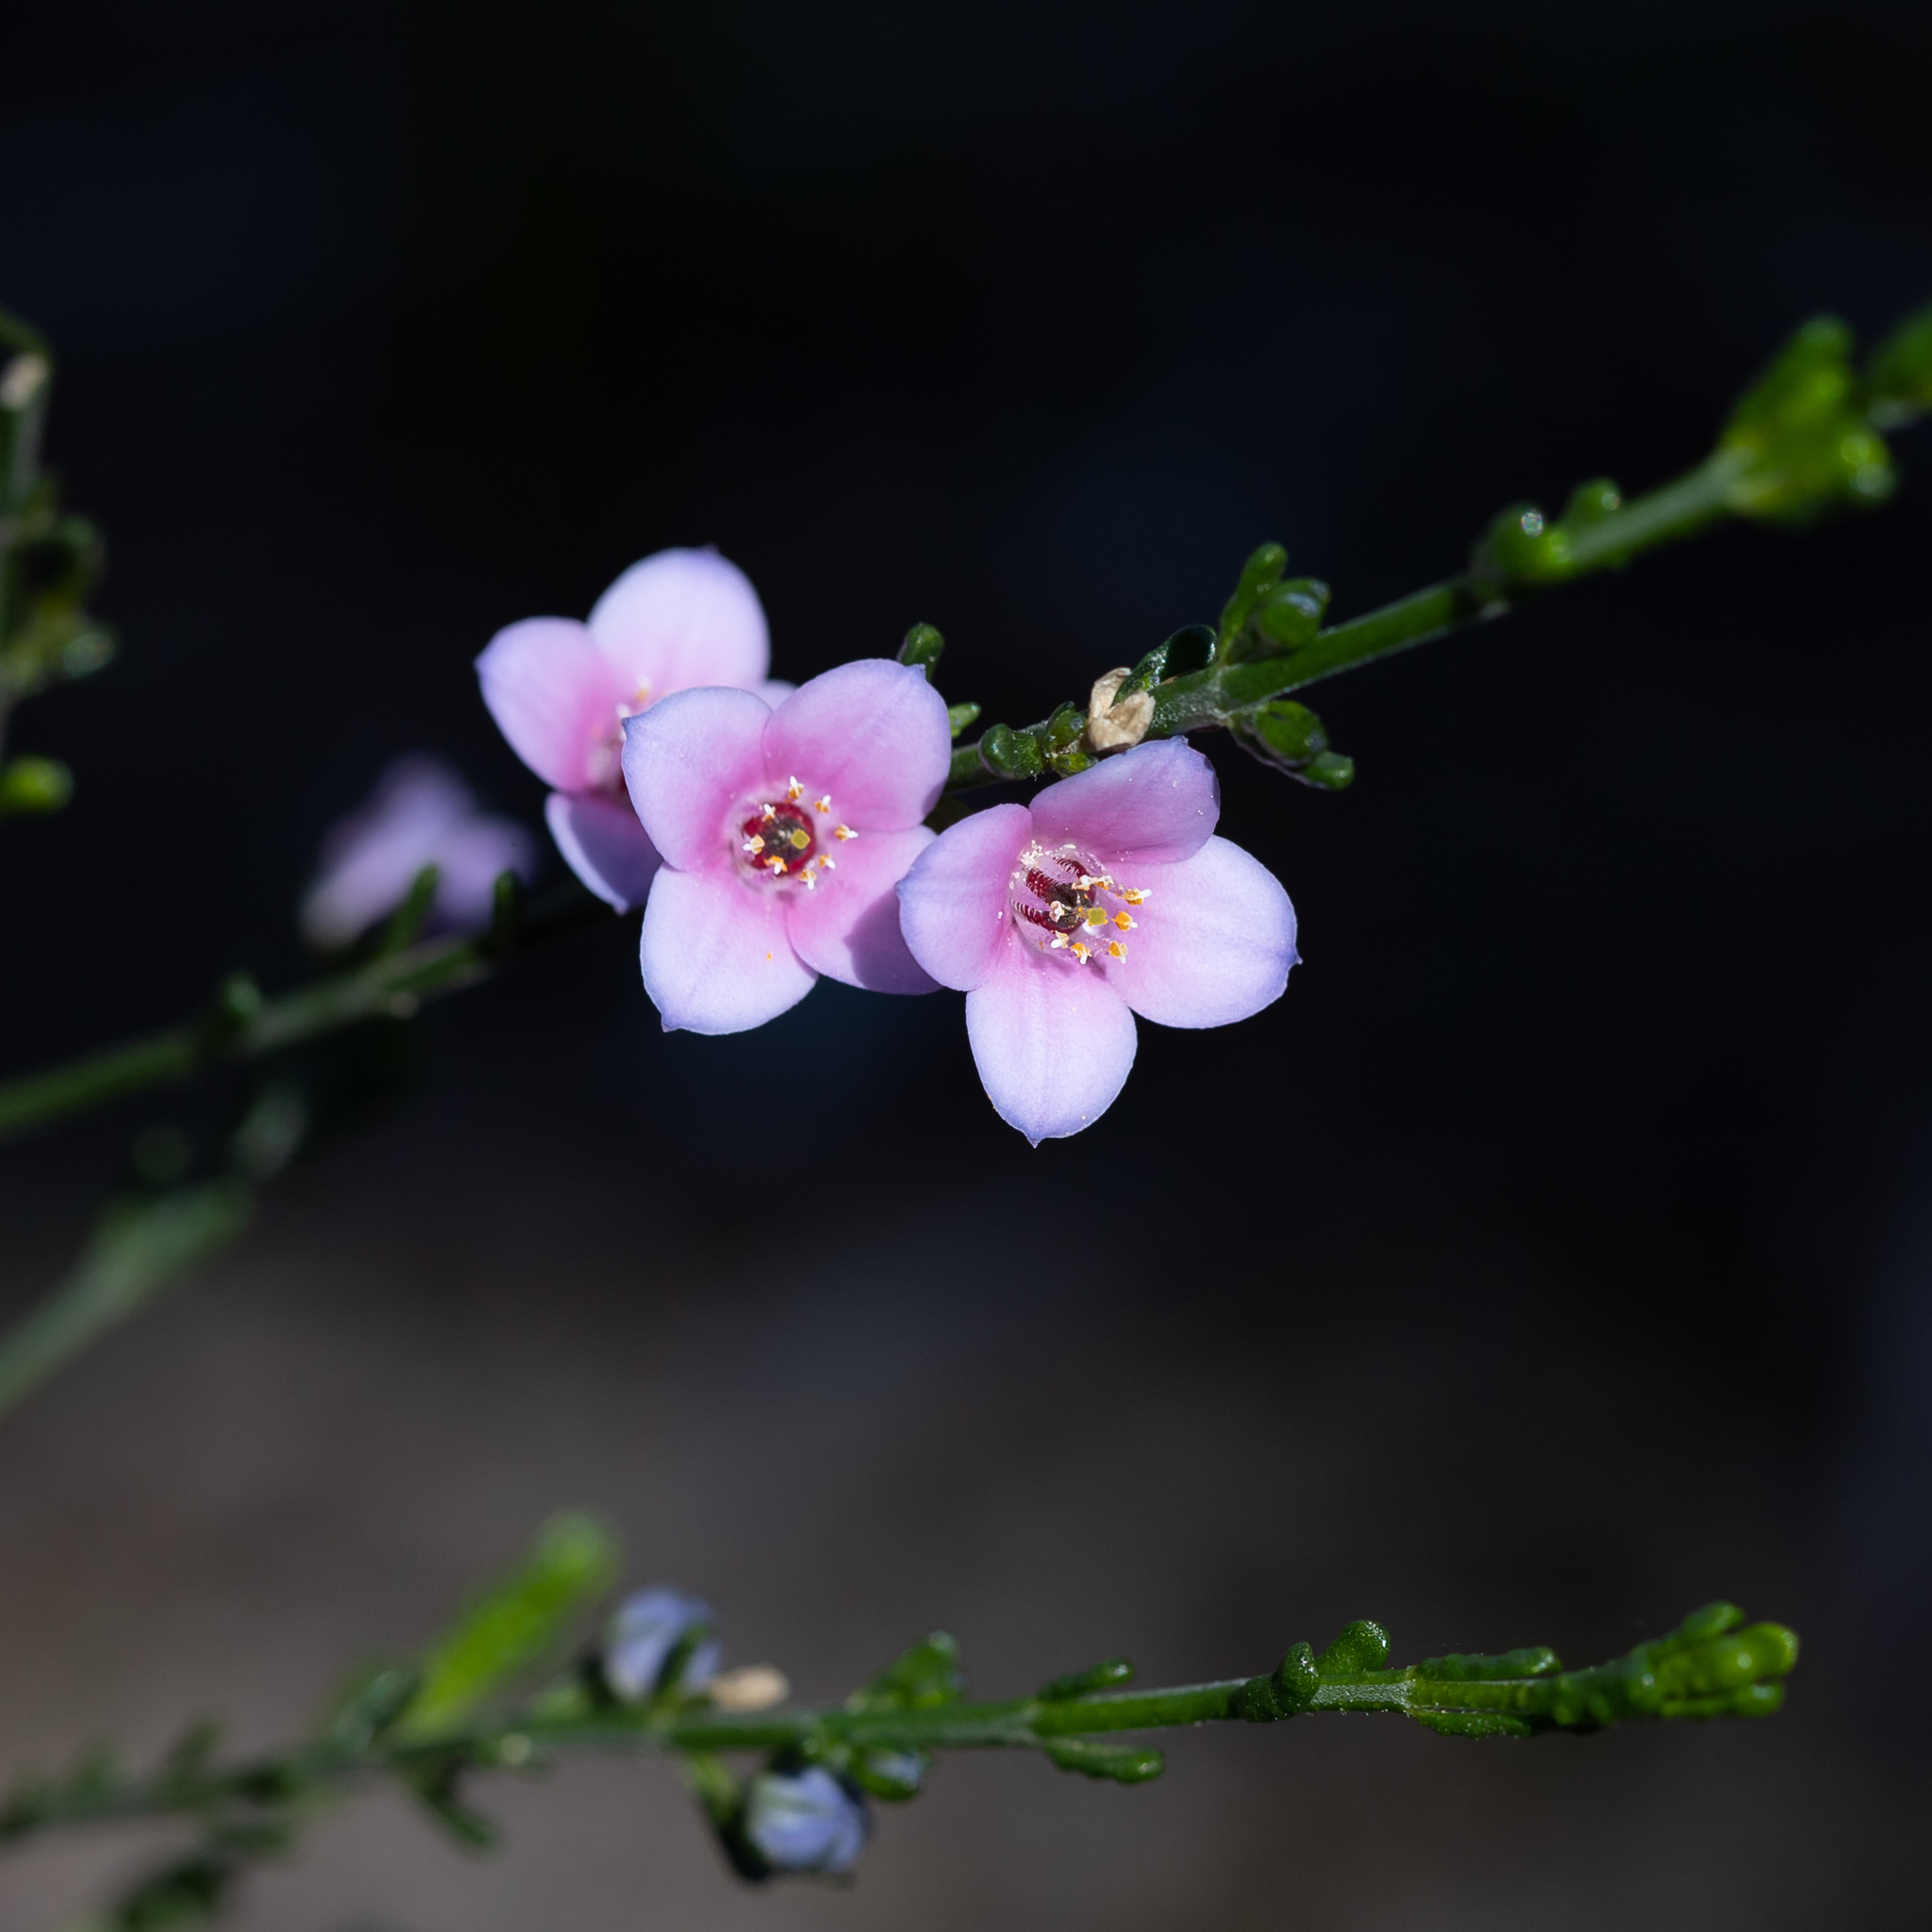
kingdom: Plantae
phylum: Tracheophyta
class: Magnoliopsida
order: Sapindales
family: Rutaceae
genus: Cyanothamnus
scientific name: Cyanothamnus coerulescens
